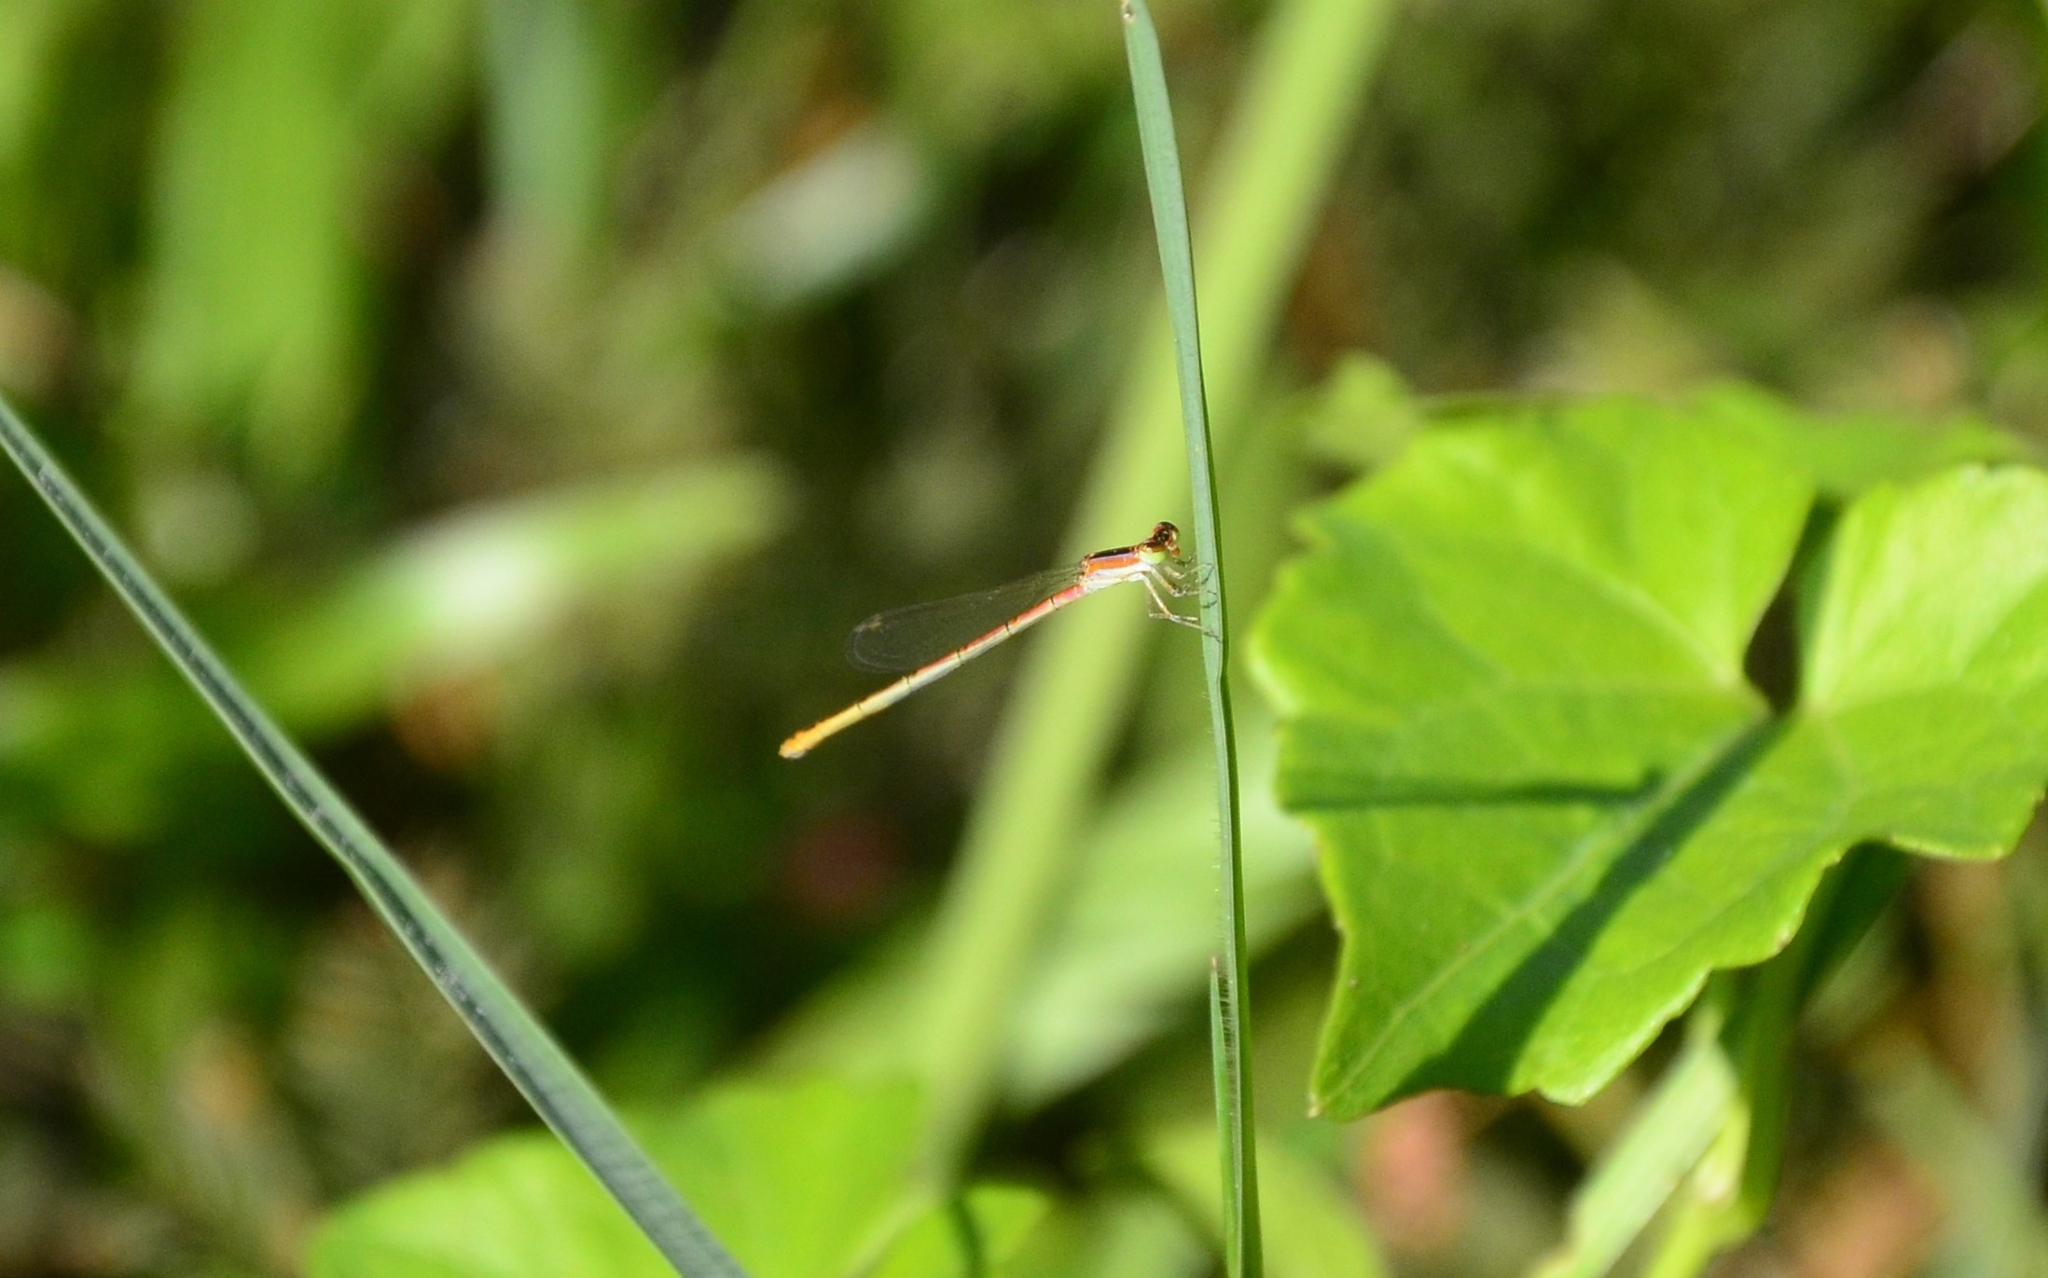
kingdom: Animalia
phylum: Arthropoda
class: Insecta
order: Odonata
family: Coenagrionidae
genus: Agriocnemis
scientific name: Agriocnemis pygmaea
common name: Pygmy wisp
